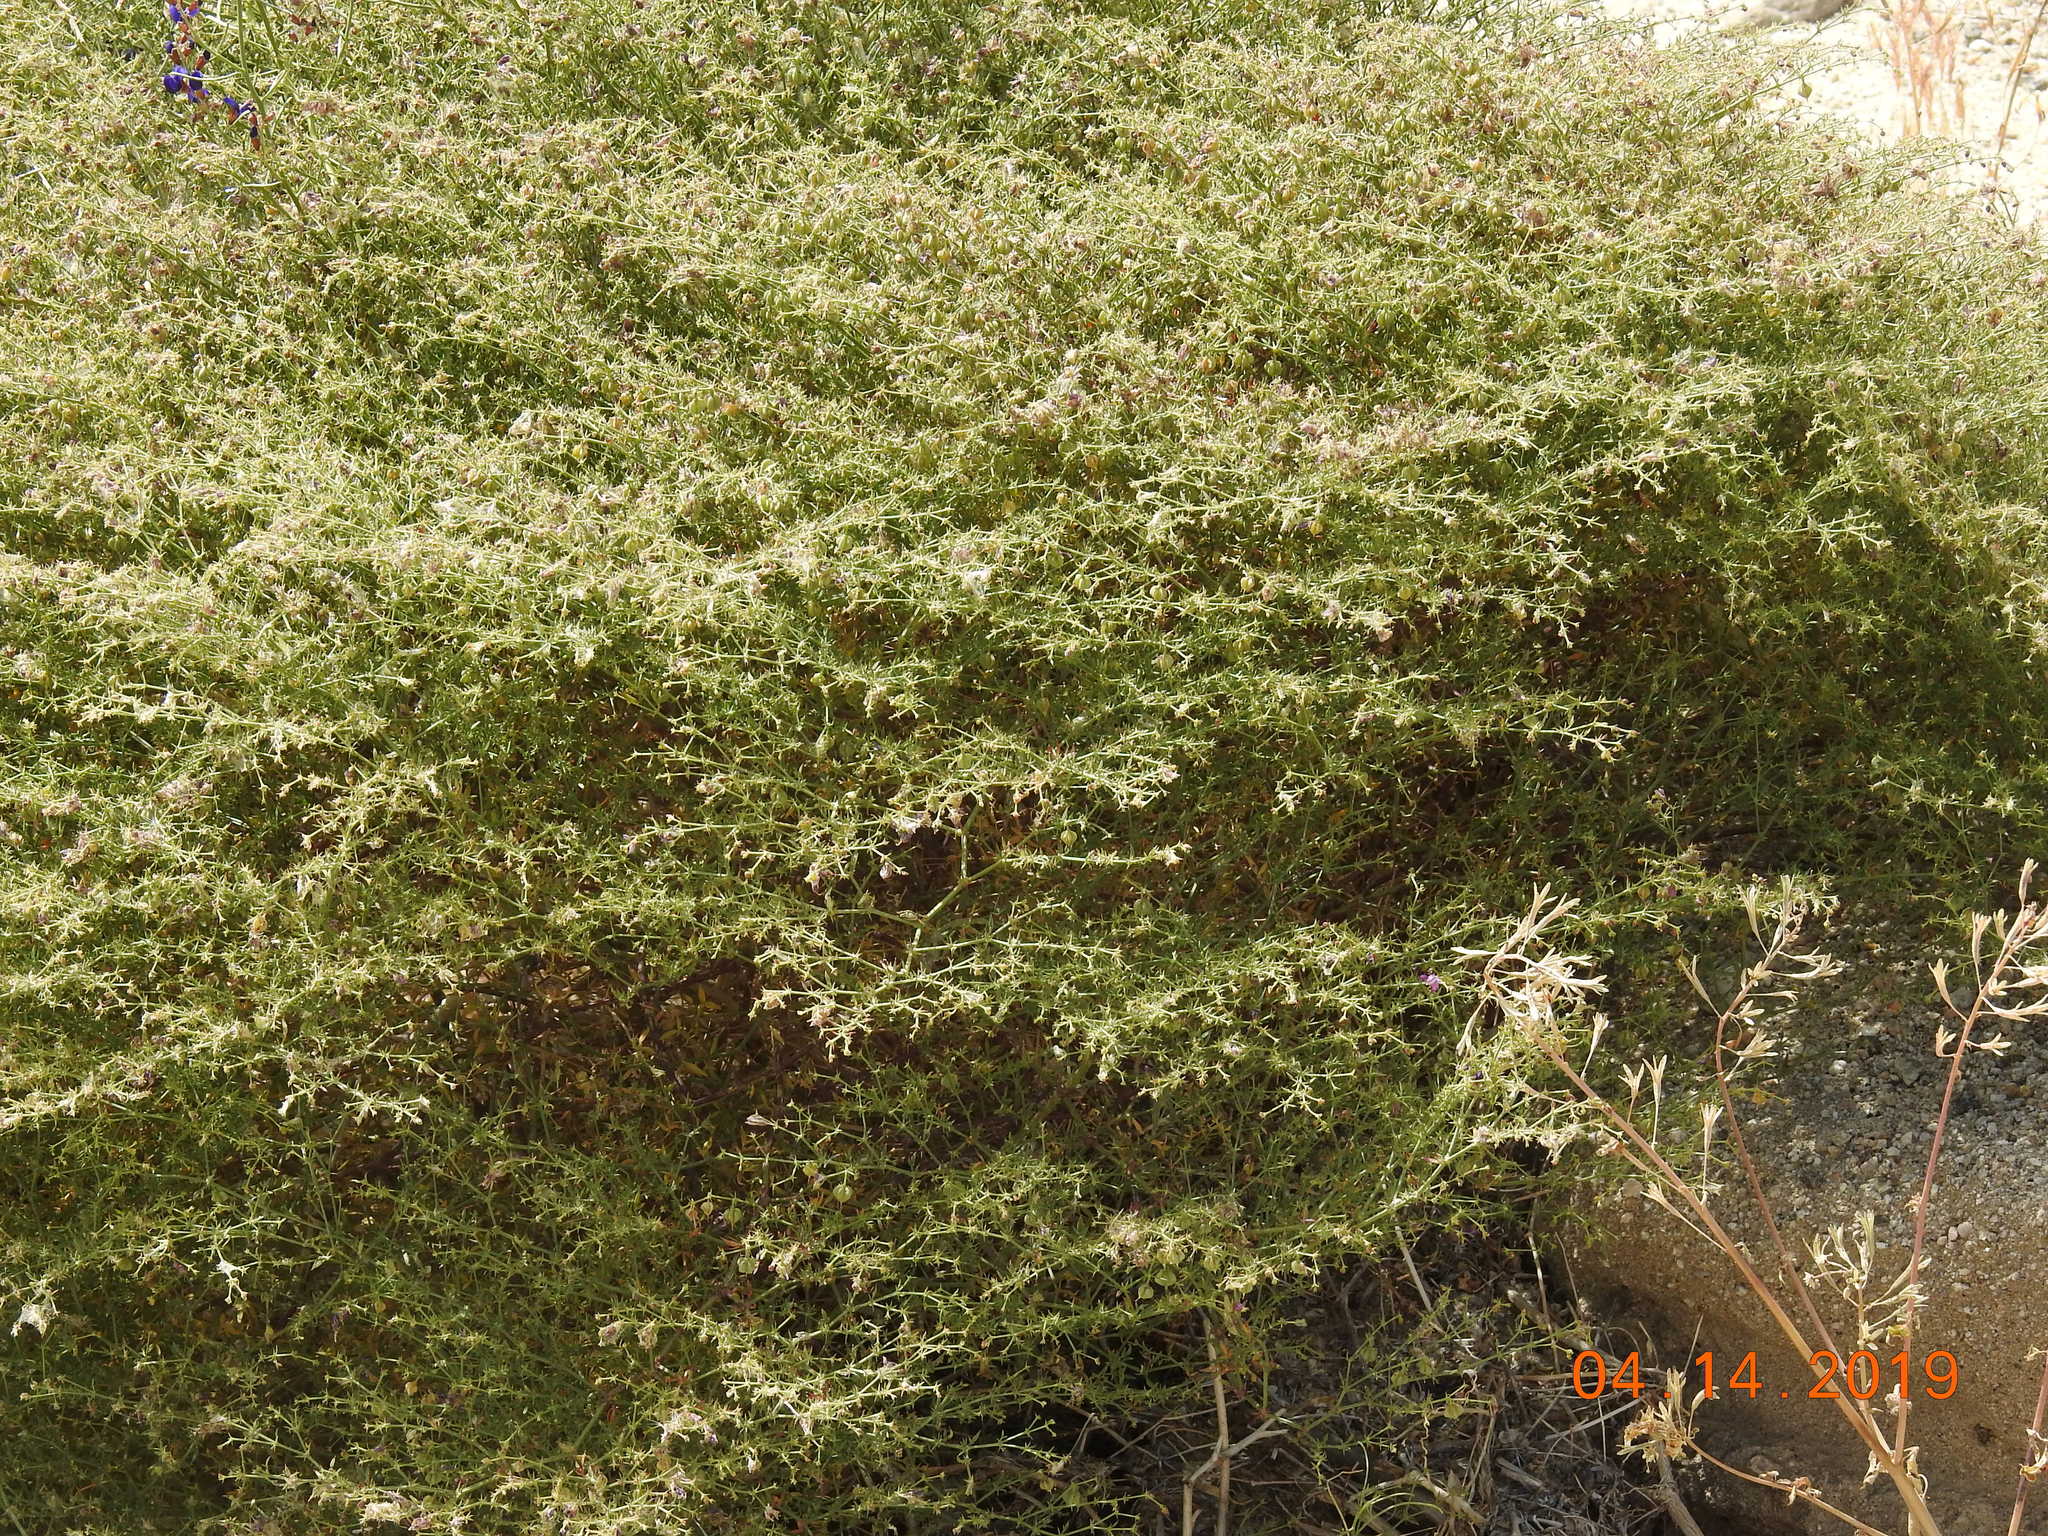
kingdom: Plantae
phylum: Tracheophyta
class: Magnoliopsida
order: Zygophyllales
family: Zygophyllaceae
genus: Fagonia
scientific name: Fagonia laevis
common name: California fagonbush
